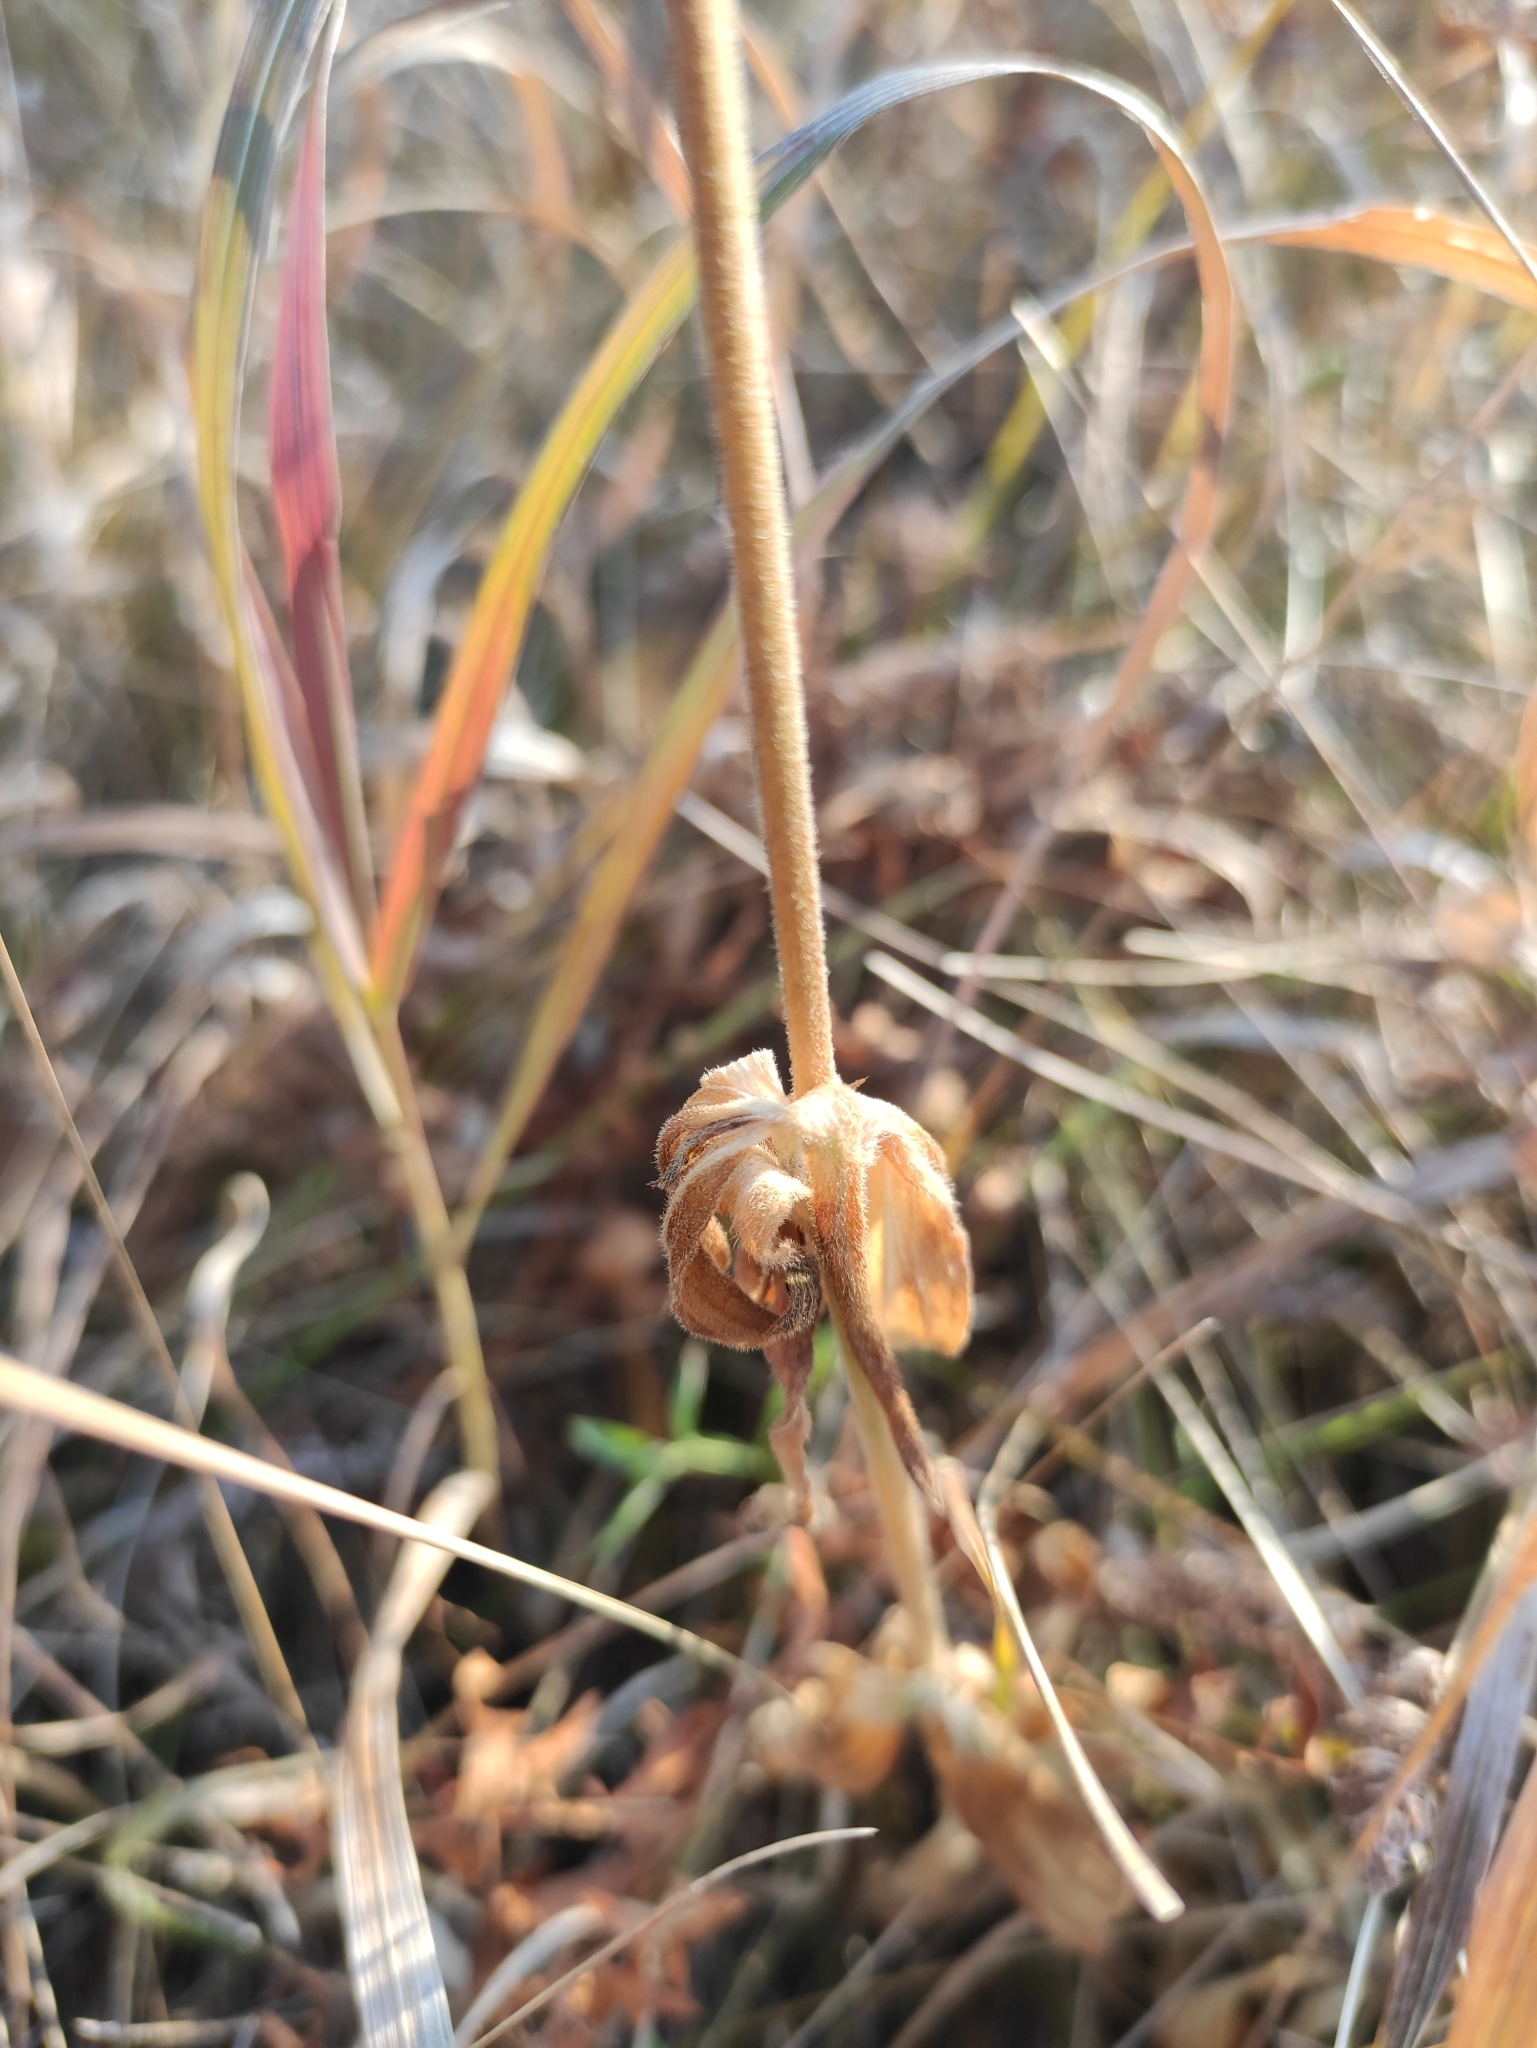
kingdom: Plantae
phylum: Tracheophyta
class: Magnoliopsida
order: Caryophyllales
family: Caryophyllaceae
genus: Silene
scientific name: Silene latifolia
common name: White campion
